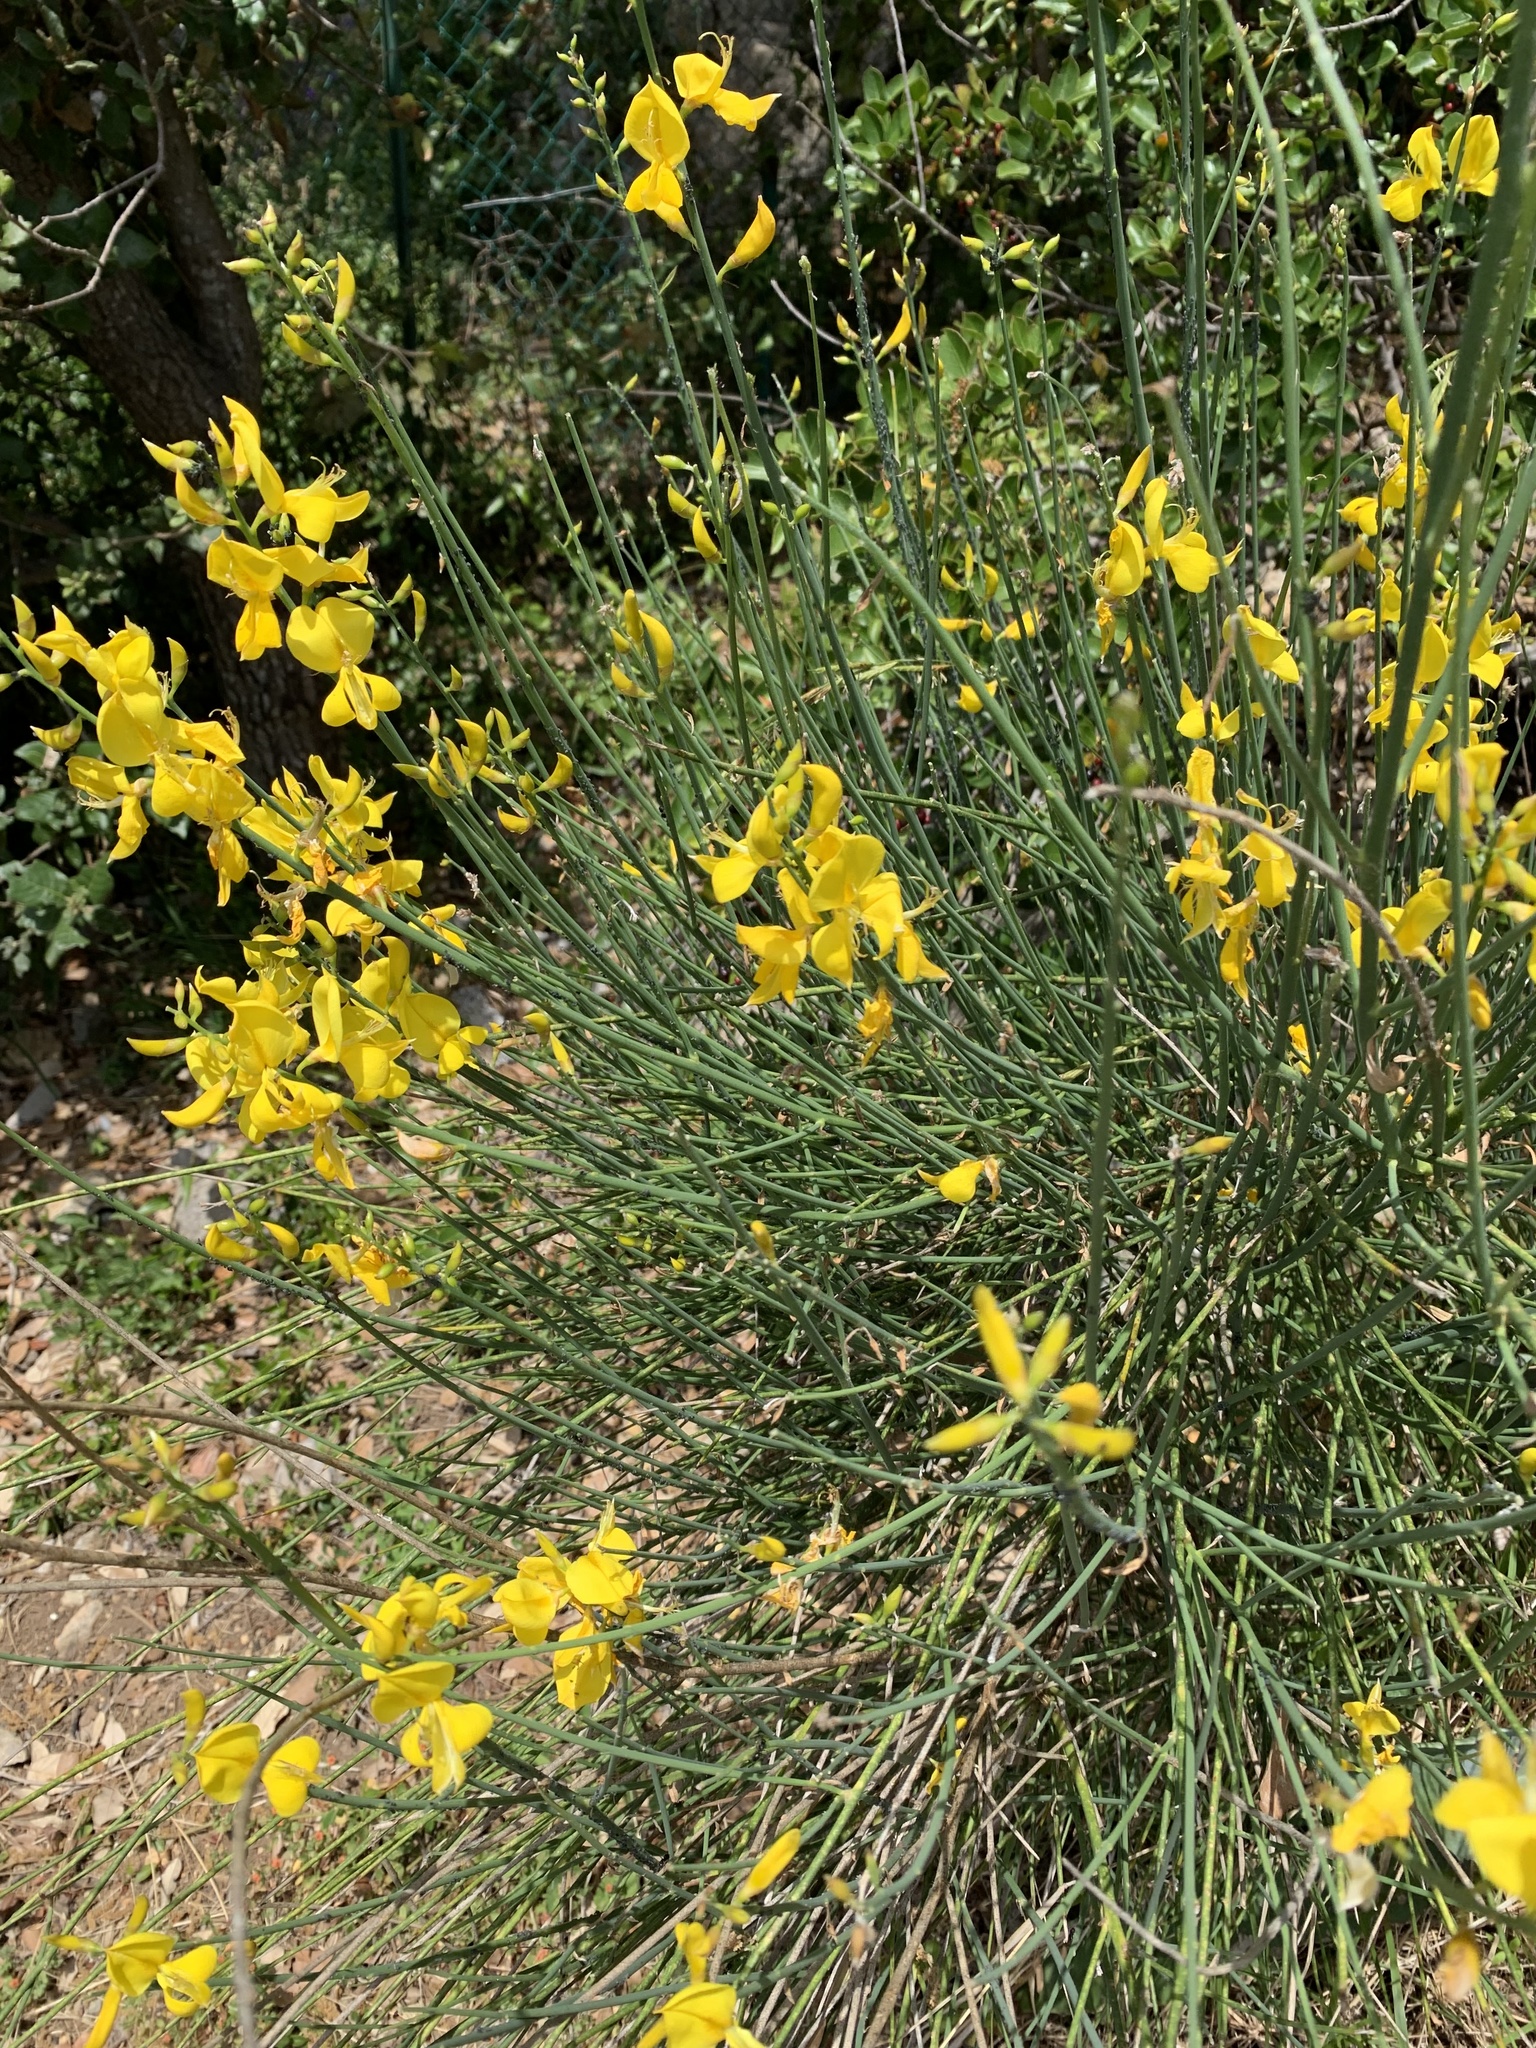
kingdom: Plantae
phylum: Tracheophyta
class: Magnoliopsida
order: Fabales
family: Fabaceae
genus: Spartium
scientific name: Spartium junceum
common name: Spanish broom
